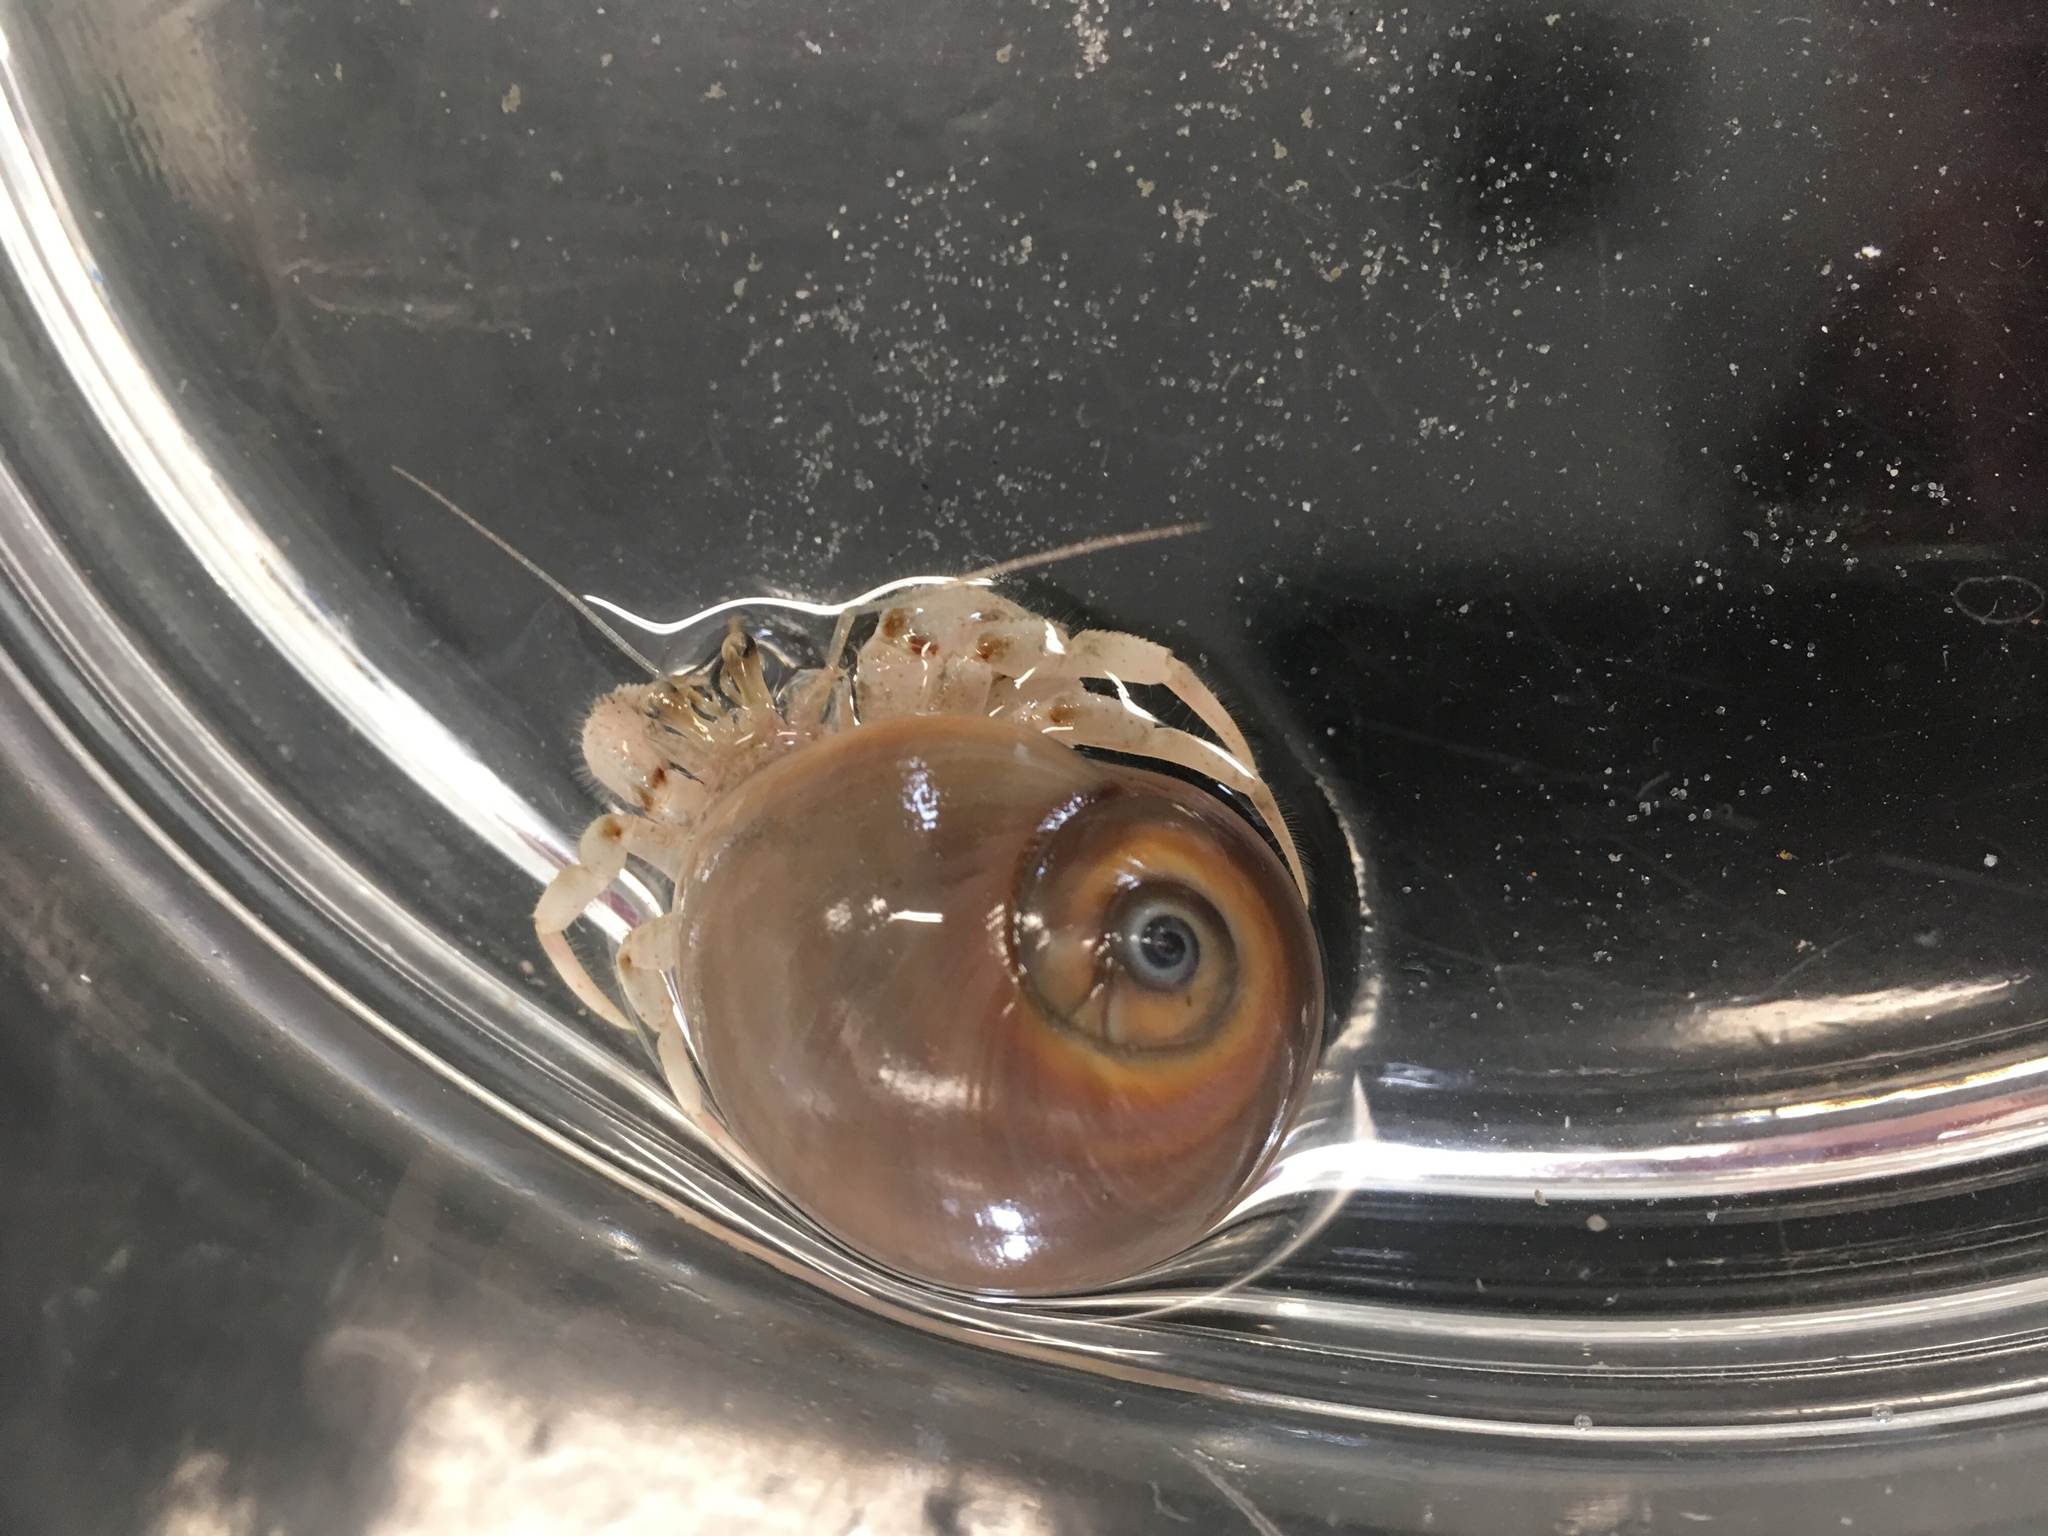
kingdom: Animalia
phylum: Arthropoda
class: Malacostraca
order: Decapoda
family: Paguridae
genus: Pagurus
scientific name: Pagurus pollicaris
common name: Flatclaw hermit
